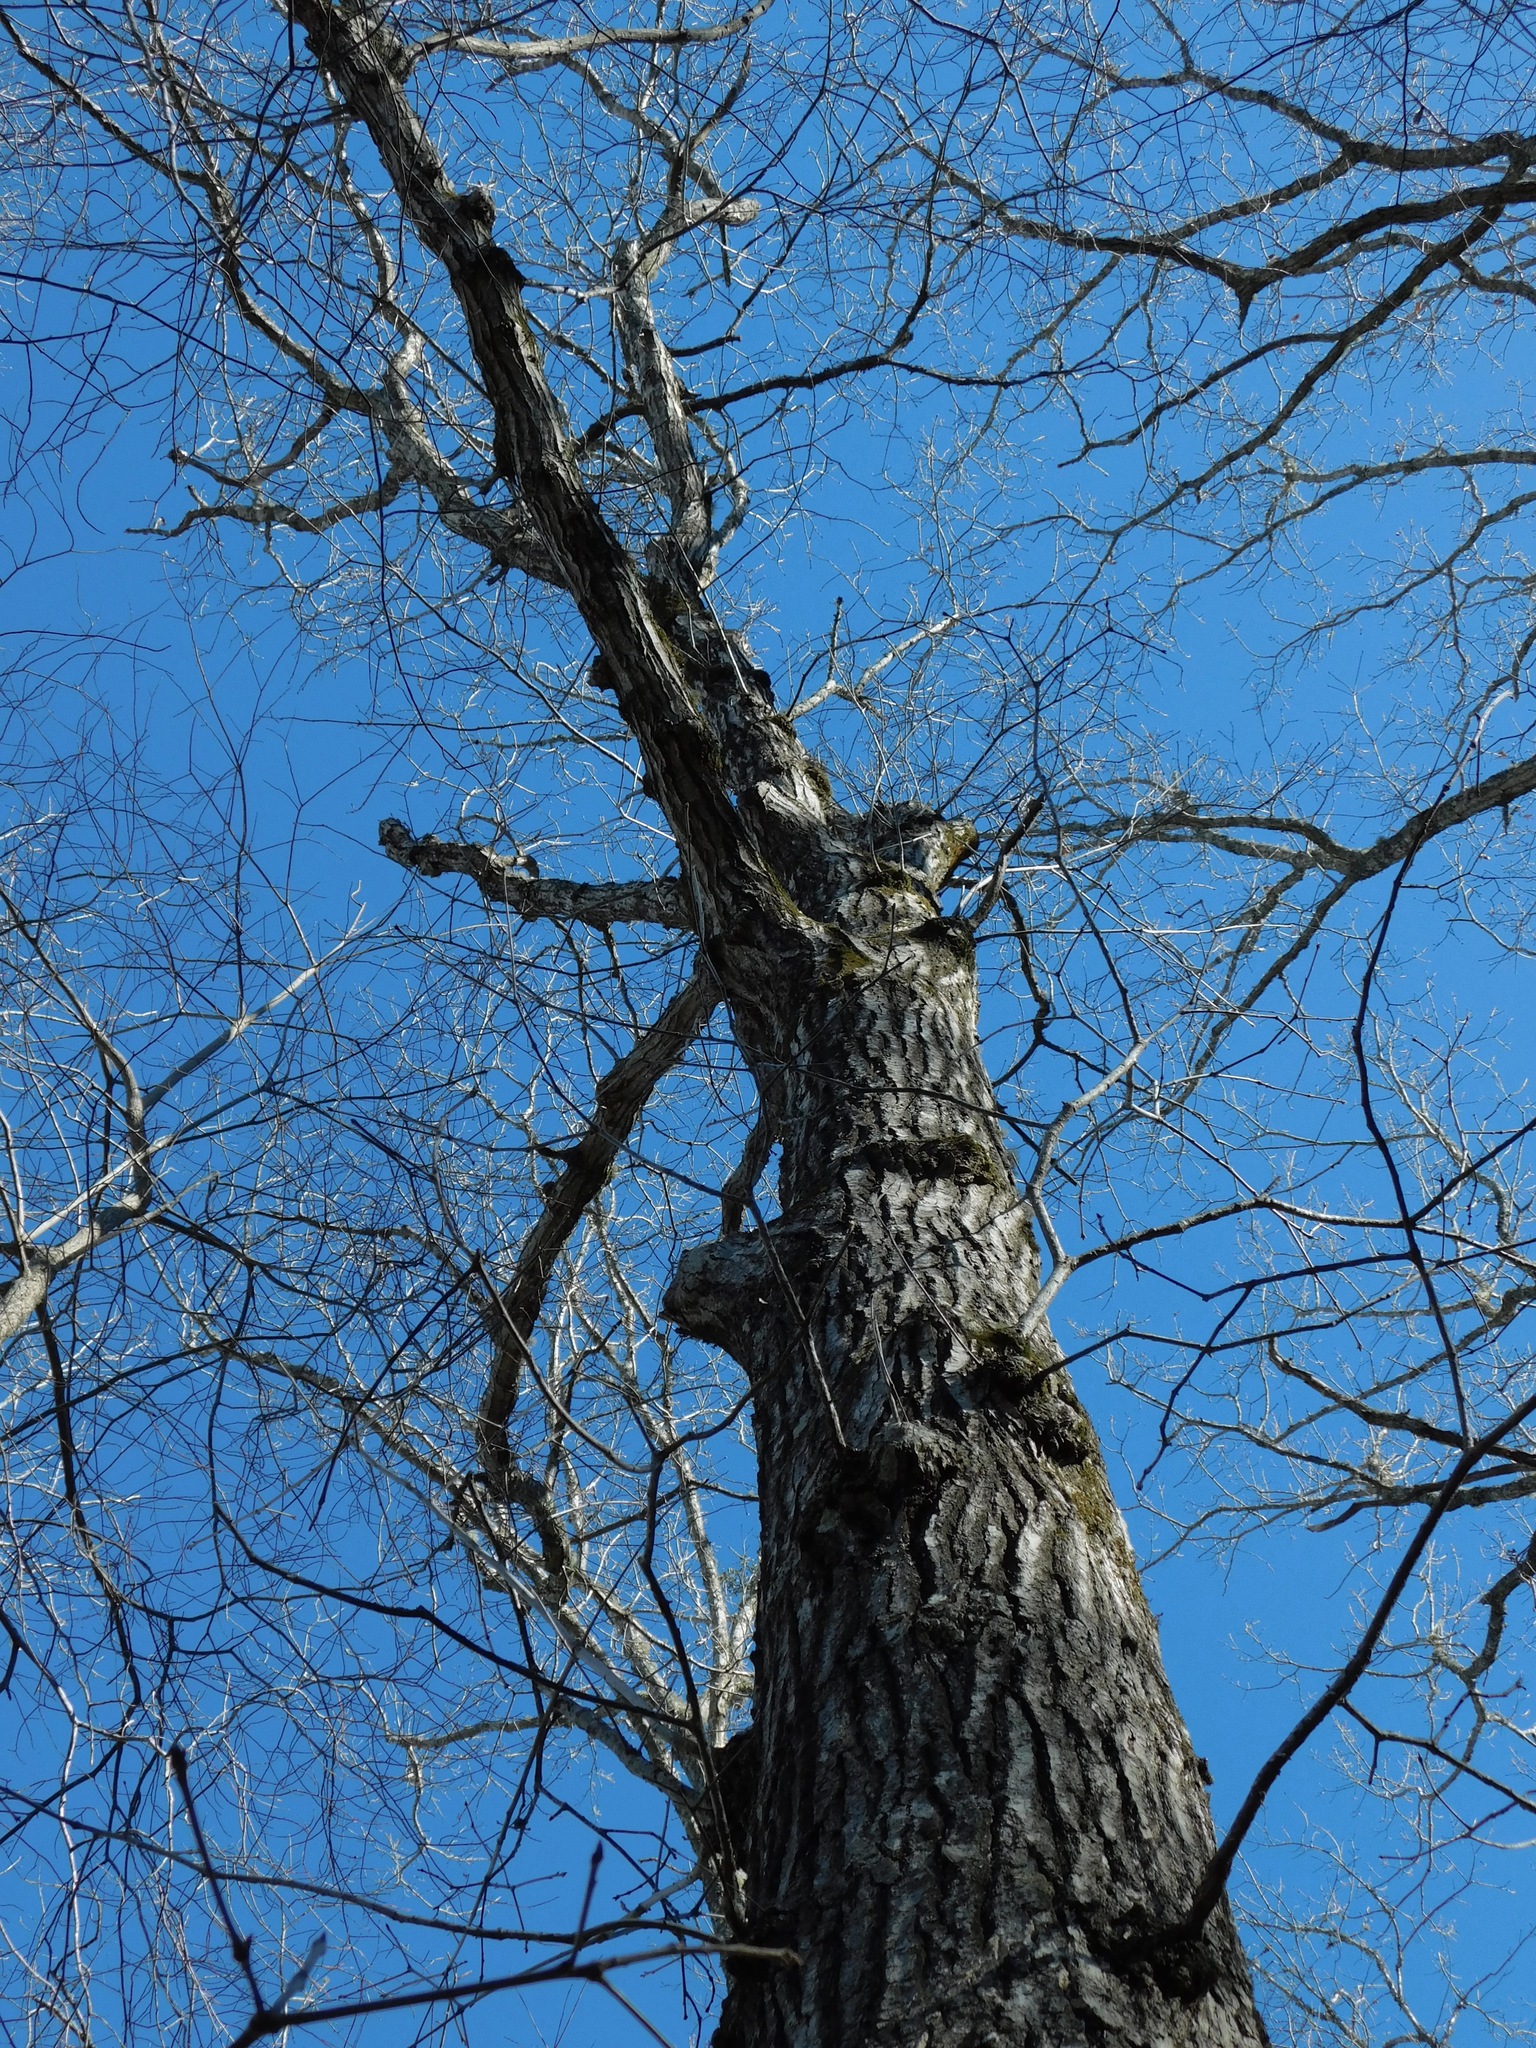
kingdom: Plantae
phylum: Tracheophyta
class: Magnoliopsida
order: Fagales
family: Fagaceae
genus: Quercus
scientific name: Quercus rubra
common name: Red oak
